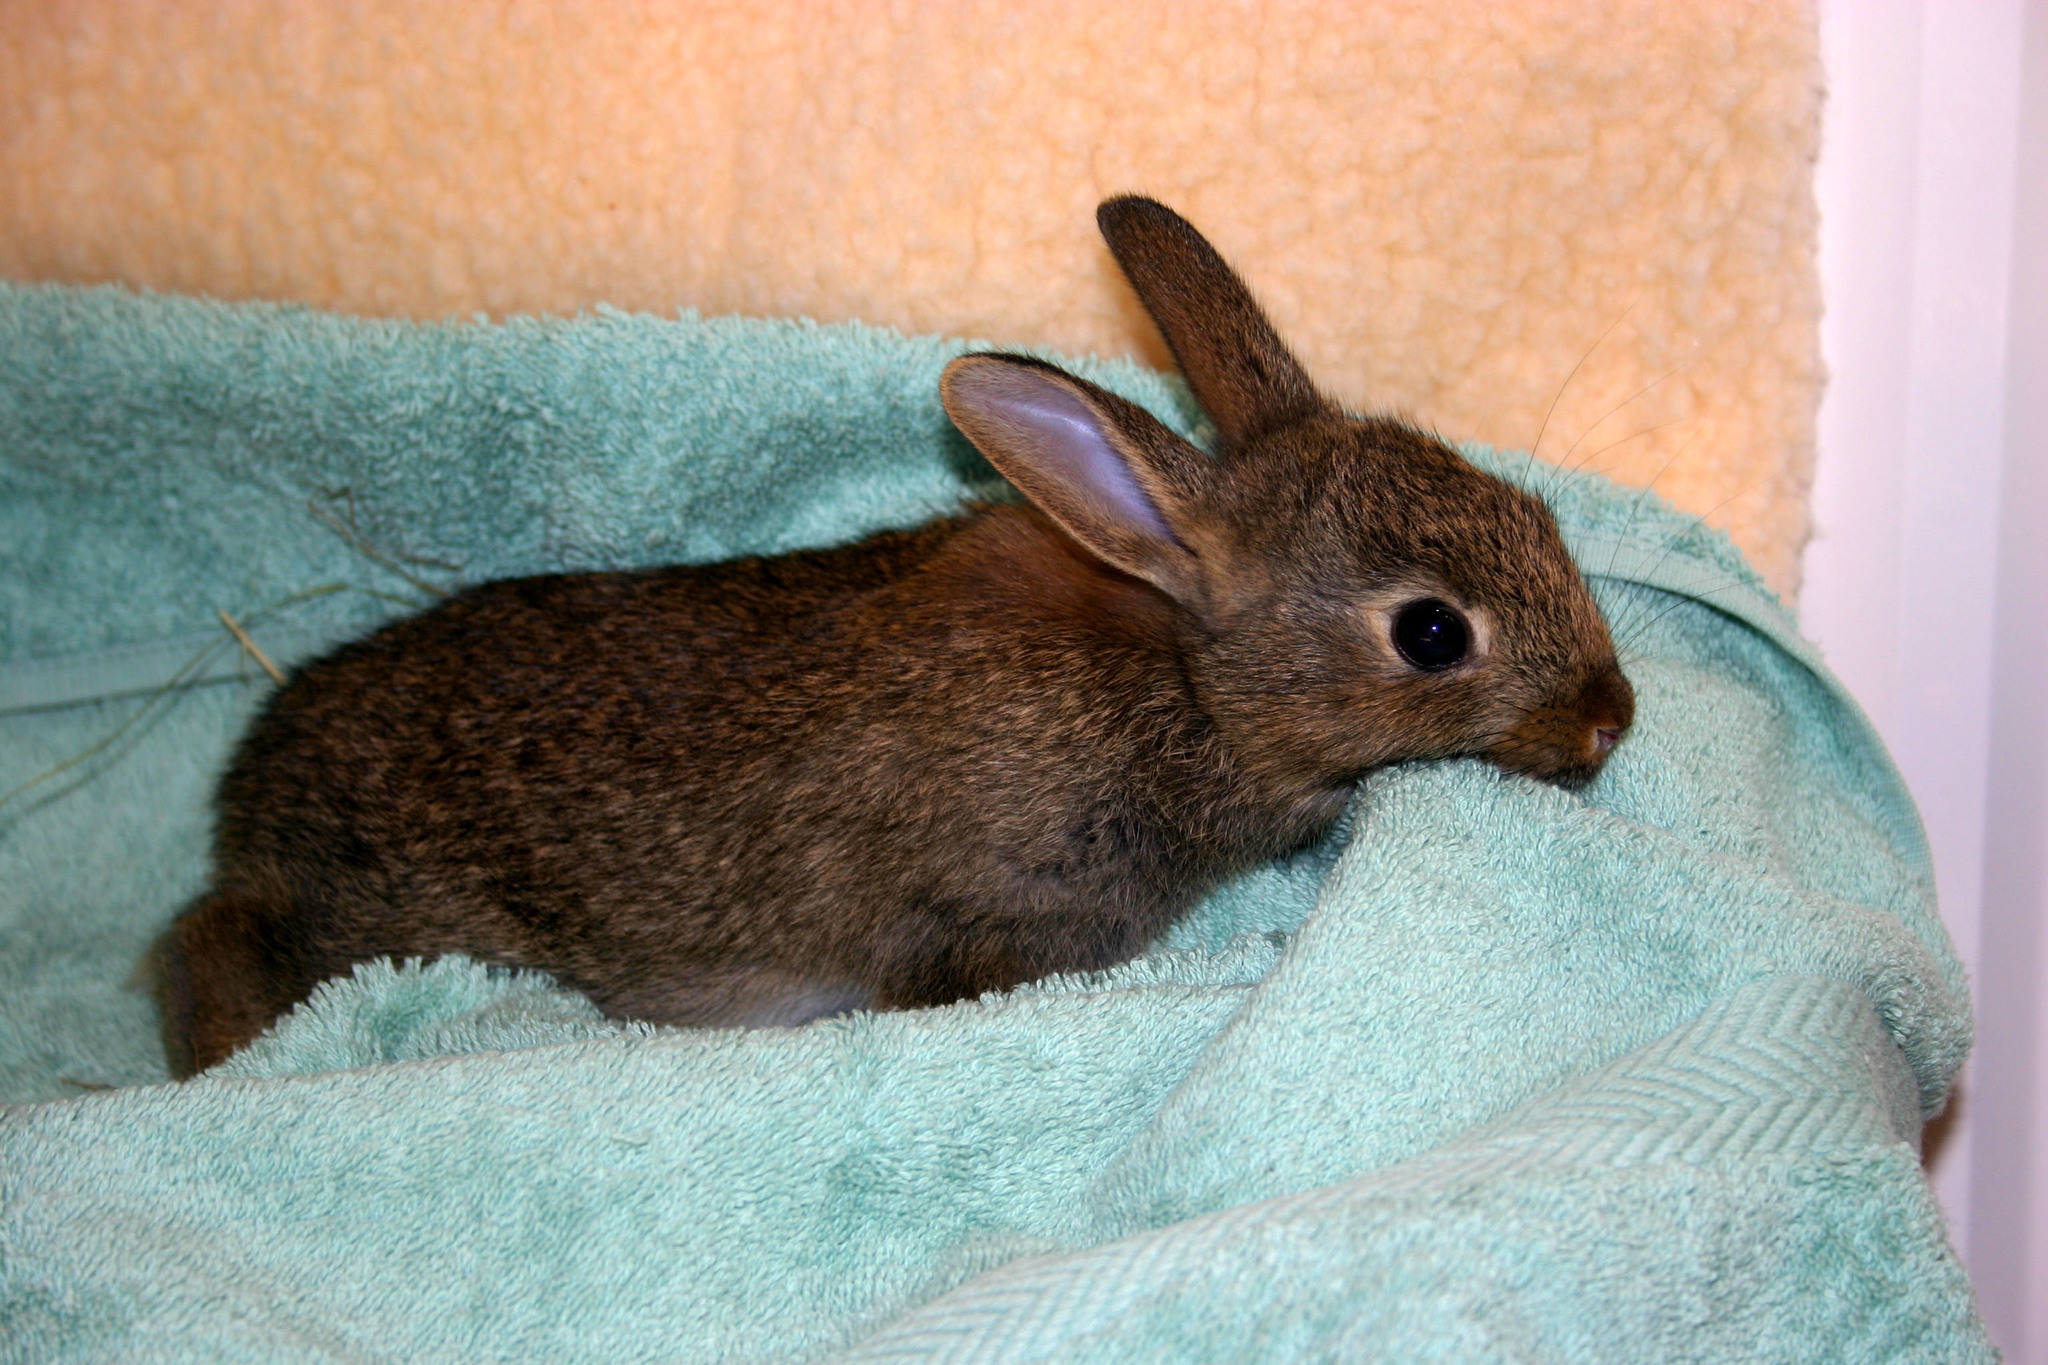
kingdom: Animalia
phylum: Chordata
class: Mammalia
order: Lagomorpha
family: Leporidae
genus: Oryctolagus
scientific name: Oryctolagus cuniculus
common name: European rabbit
